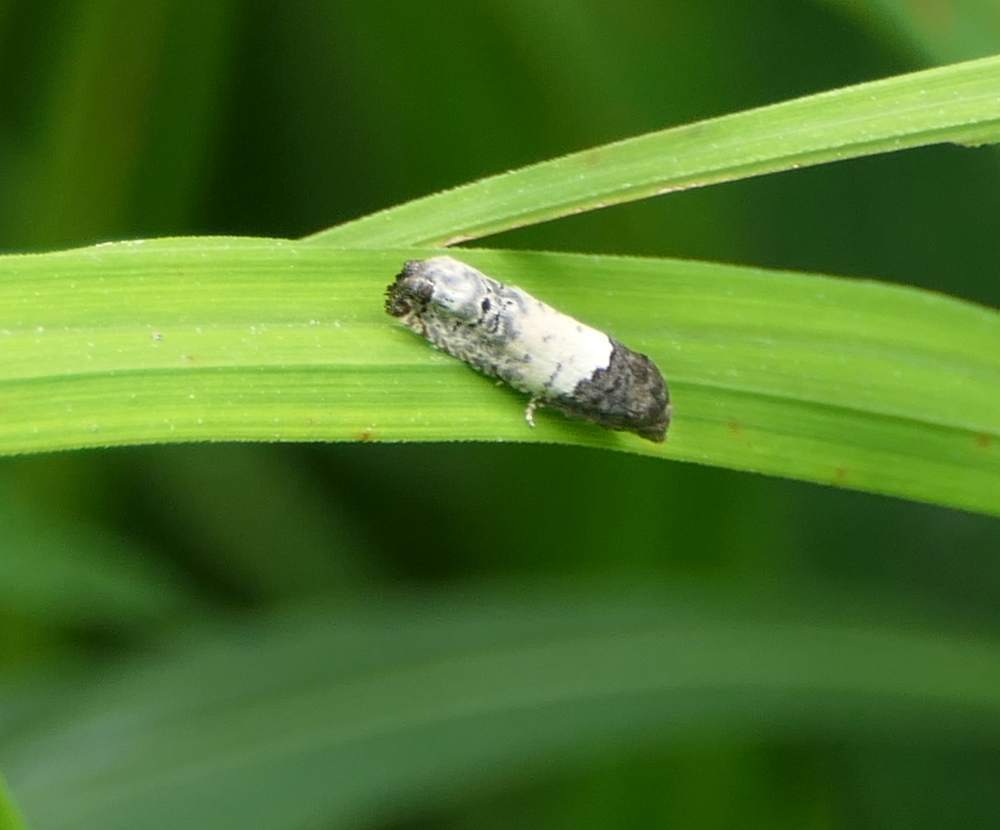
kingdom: Animalia
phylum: Arthropoda
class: Insecta
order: Lepidoptera
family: Tortricidae
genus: Epiblema
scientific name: Epiblema scudderiana
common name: Goldenrod gall moth
